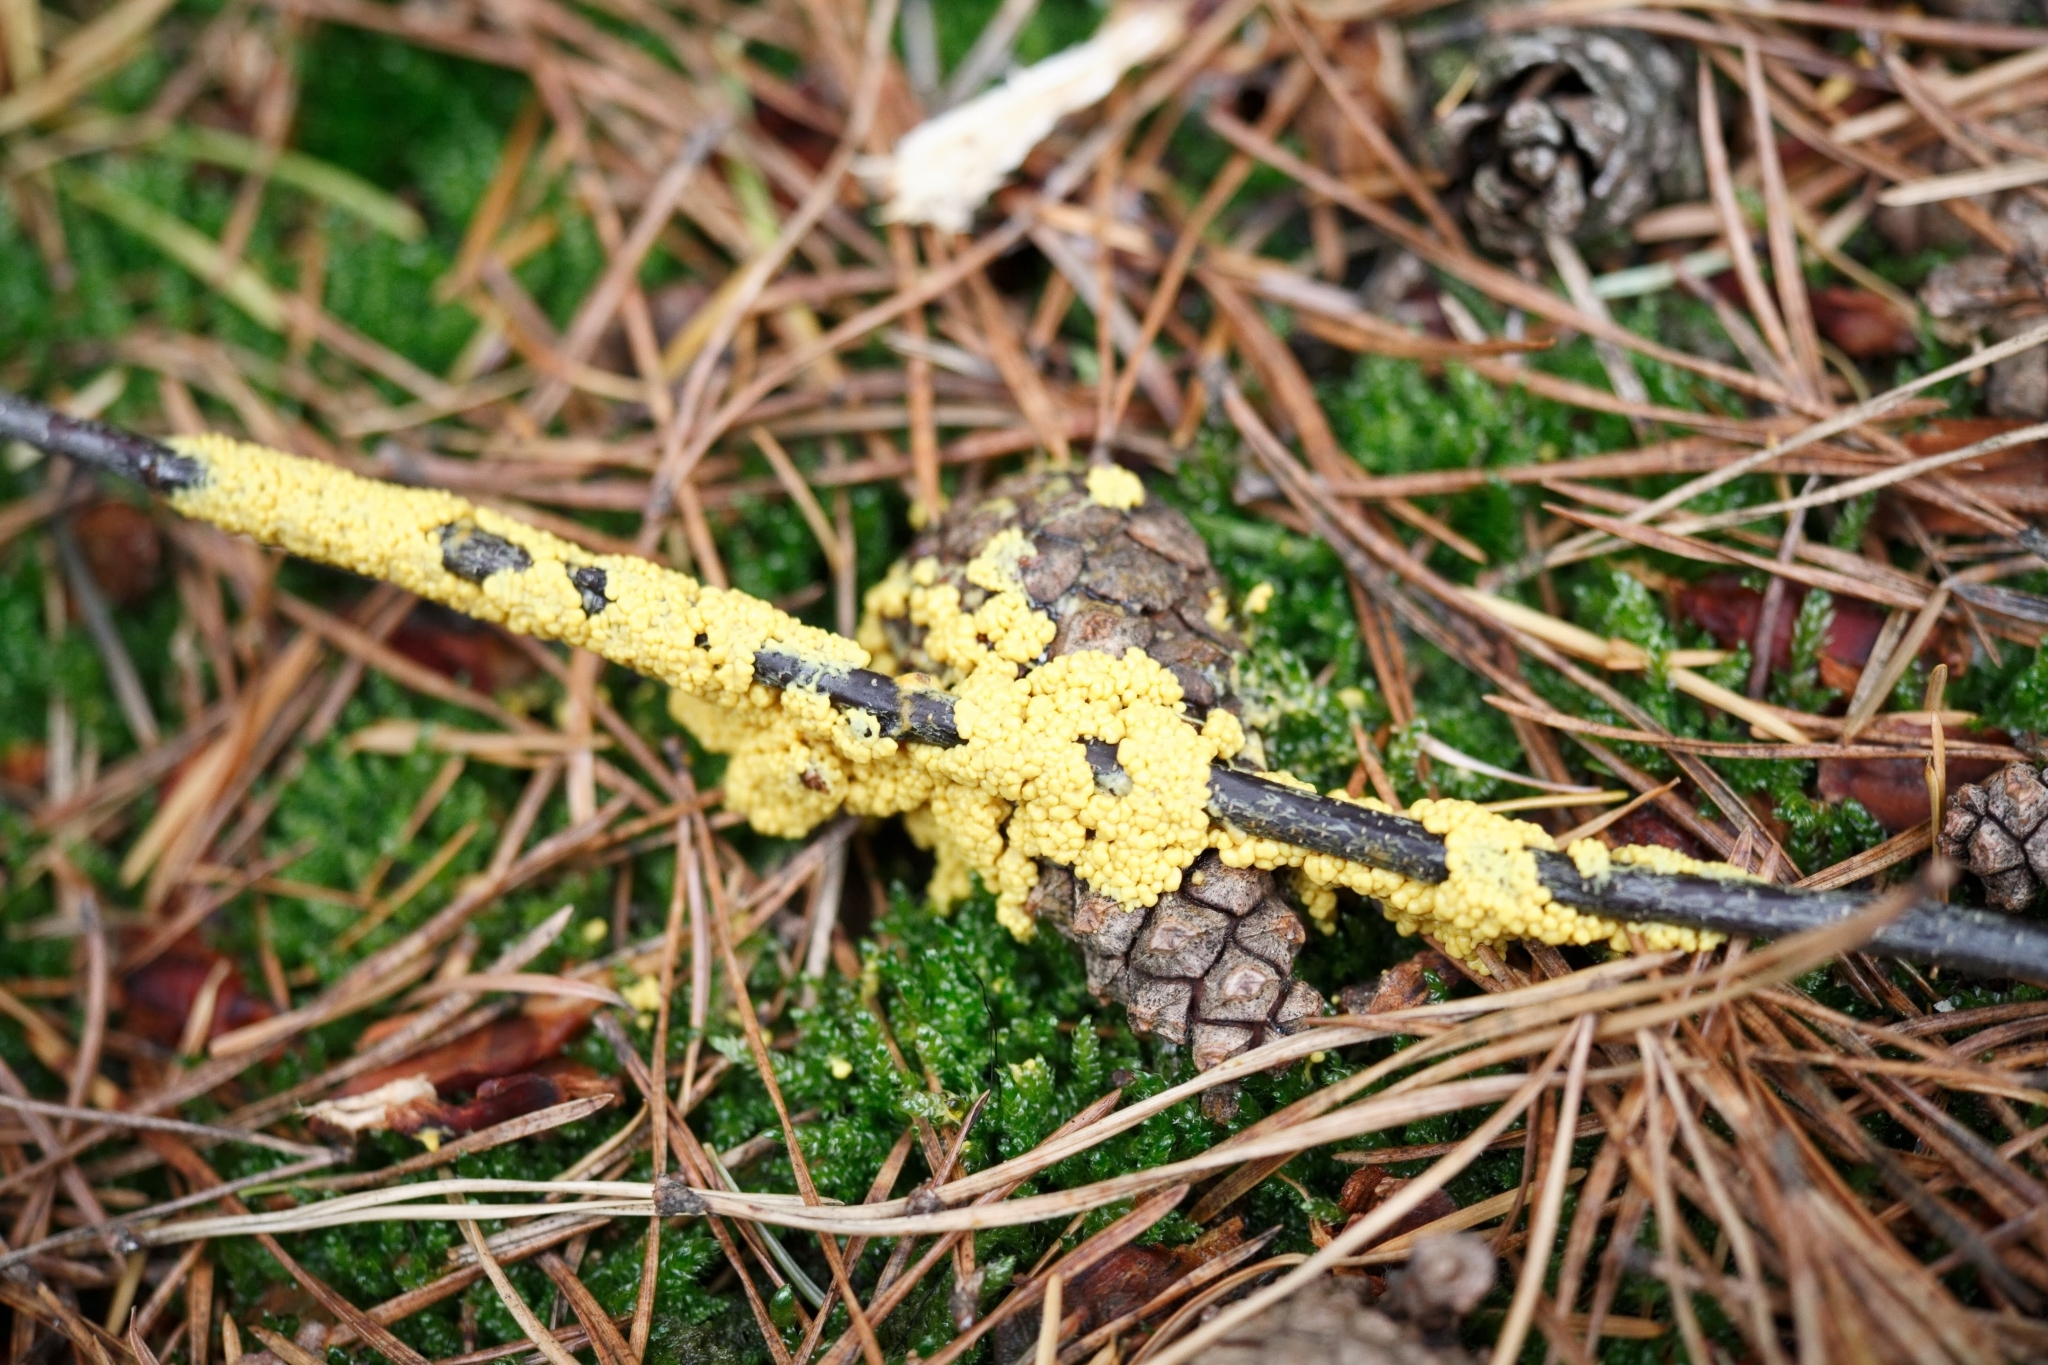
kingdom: Protozoa
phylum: Mycetozoa
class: Myxomycetes
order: Physarales
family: Physaraceae
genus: Fuligo
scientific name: Fuligo septica
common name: Dog vomit slime mold
